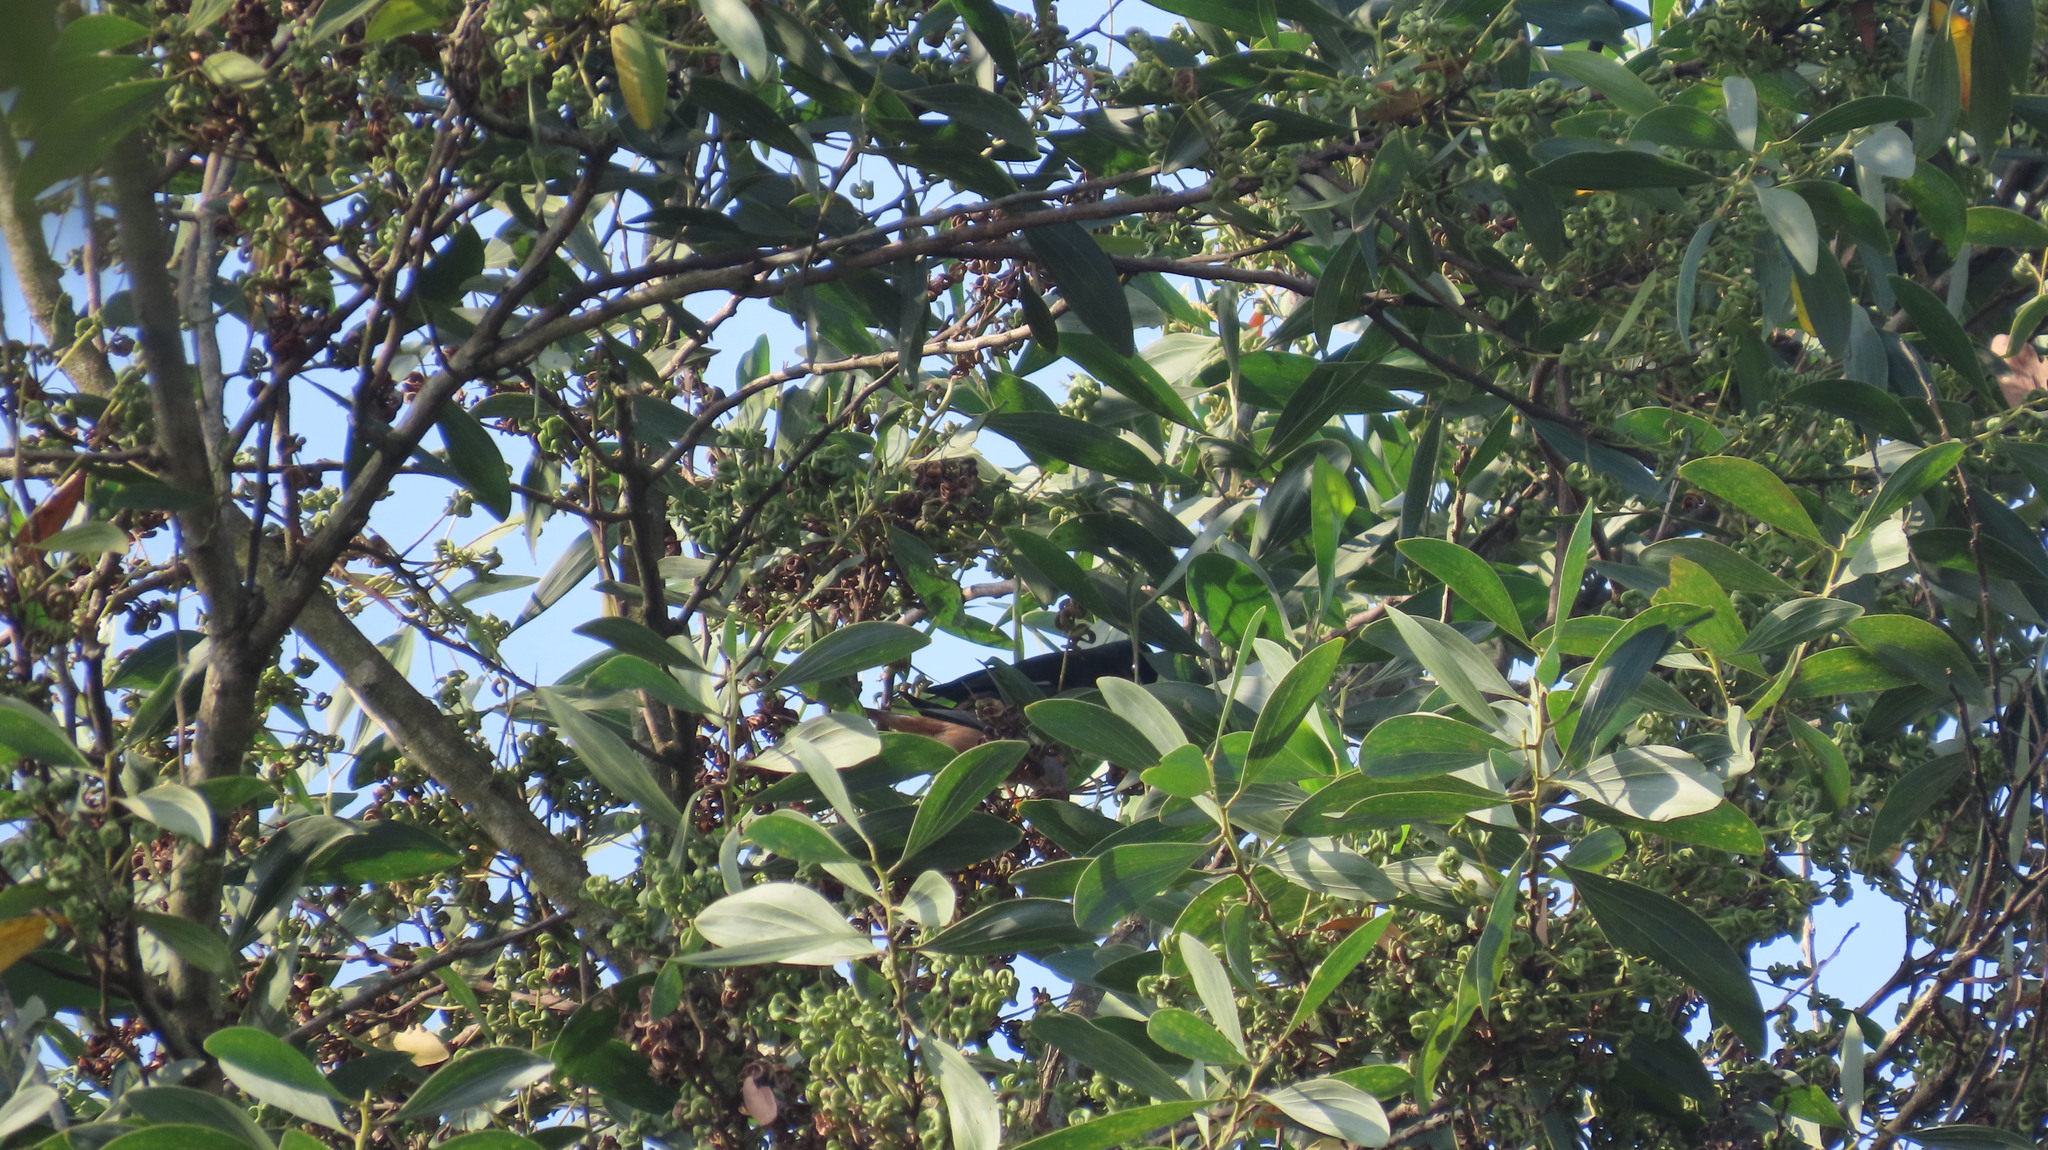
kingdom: Animalia
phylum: Chordata
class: Aves
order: Passeriformes
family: Sturnidae
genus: Sturnia
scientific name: Sturnia malabarica
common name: Chestnut-tailed starling
